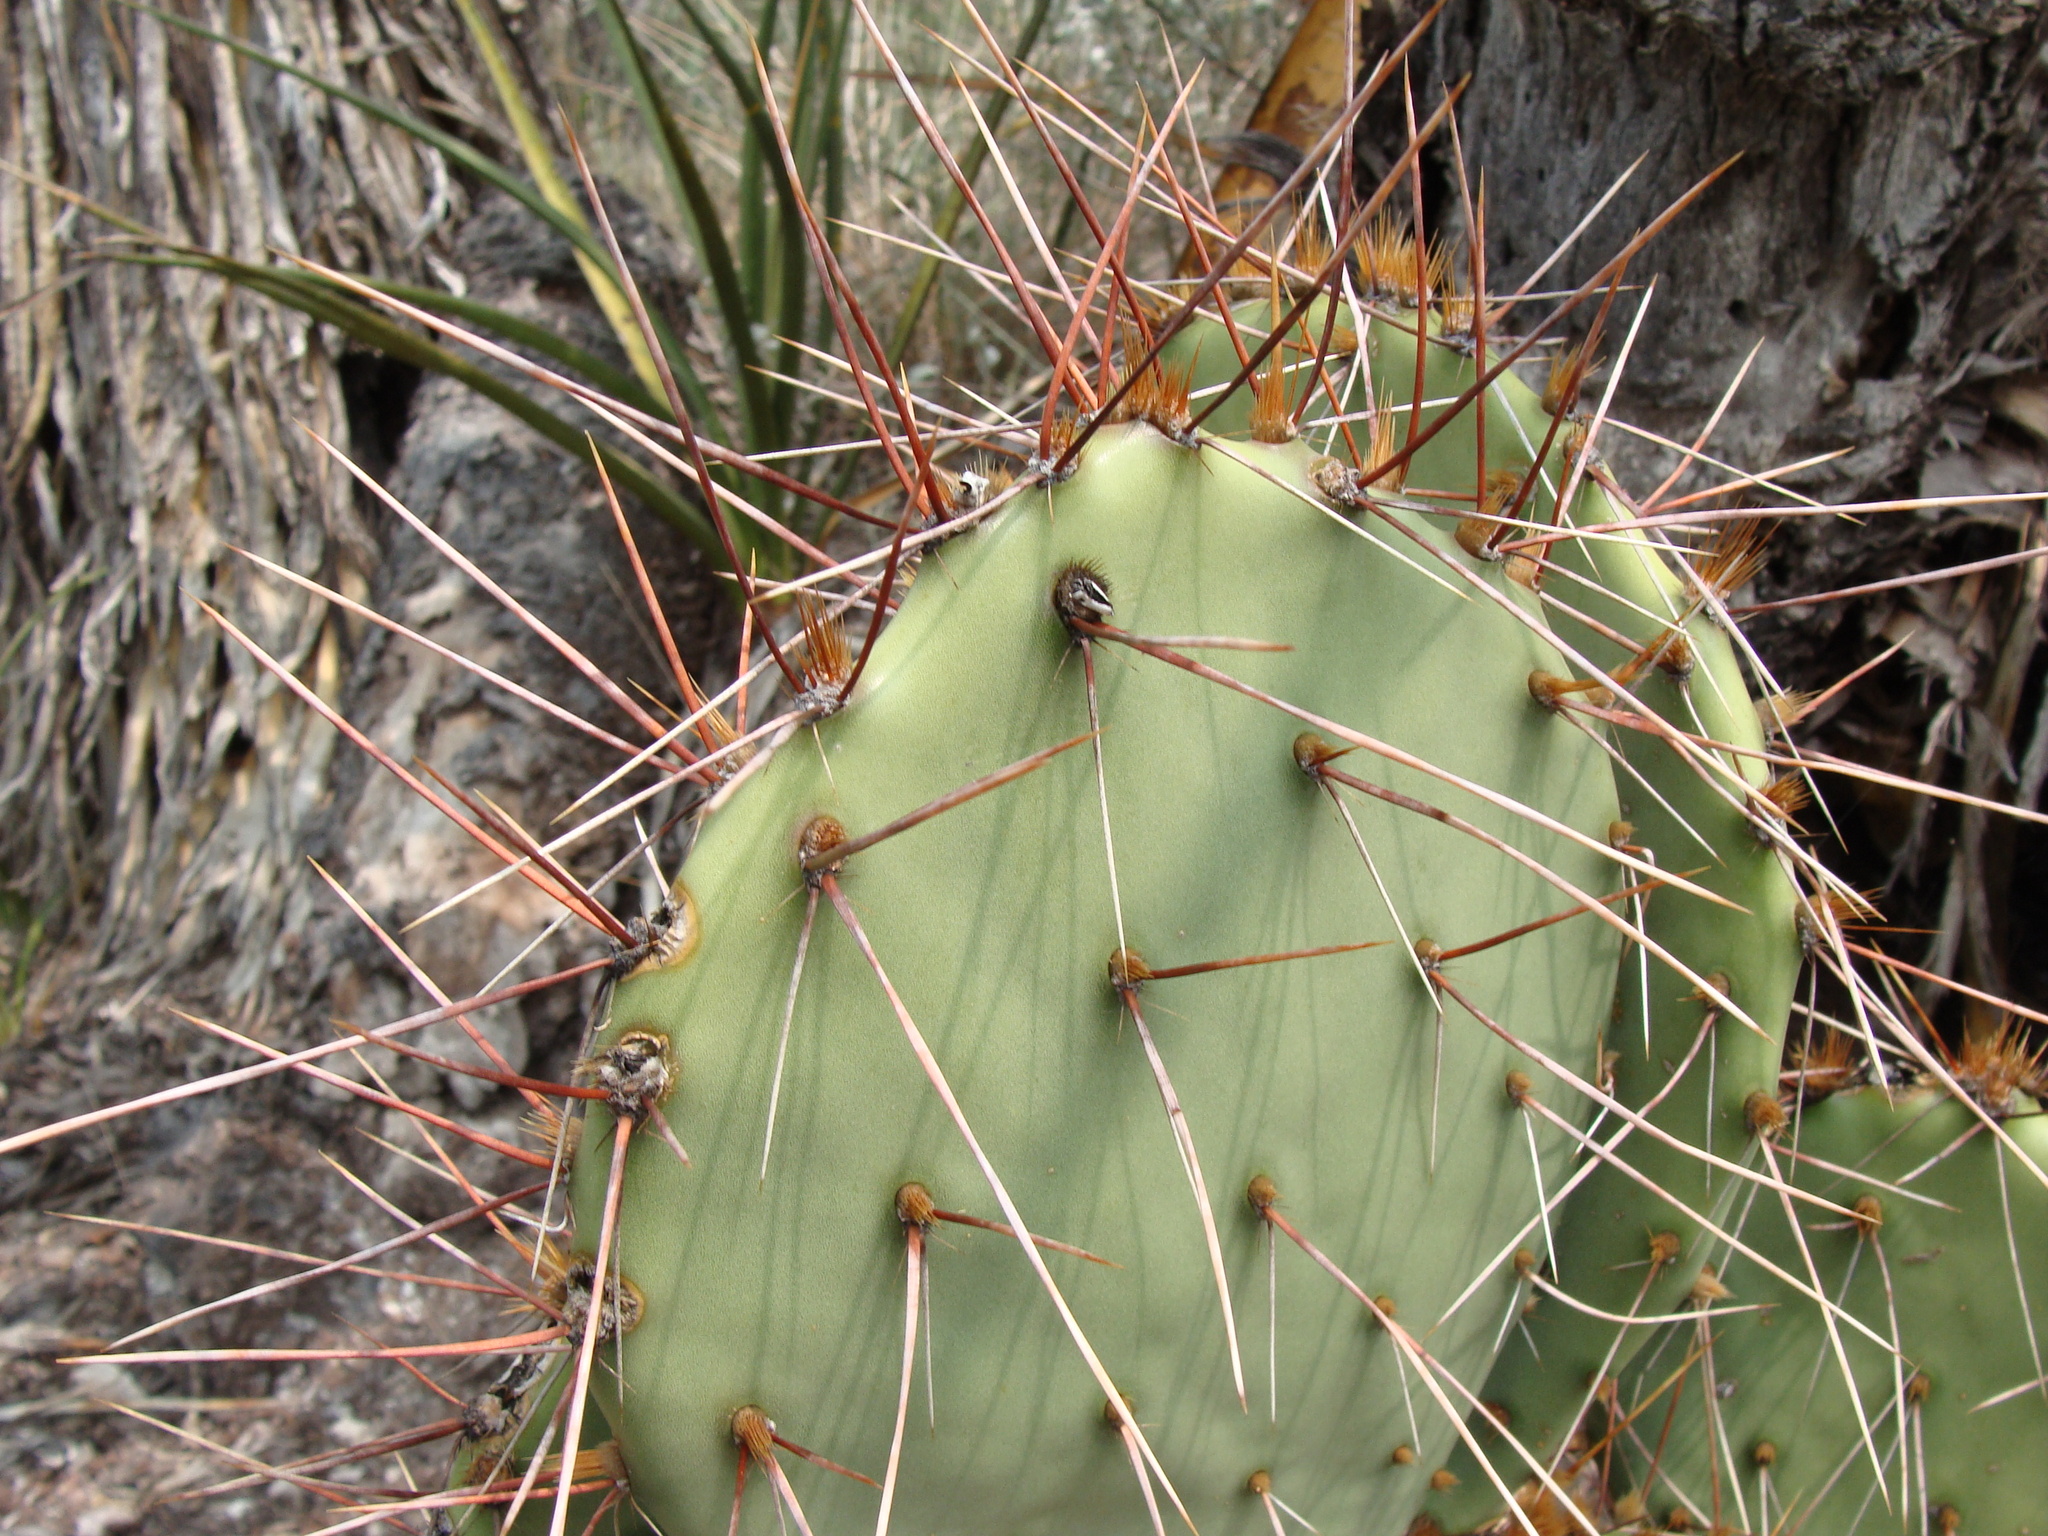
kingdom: Plantae
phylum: Tracheophyta
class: Magnoliopsida
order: Caryophyllales
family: Cactaceae
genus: Opuntia
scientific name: Opuntia phaeacantha
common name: New mexico prickly-pear
